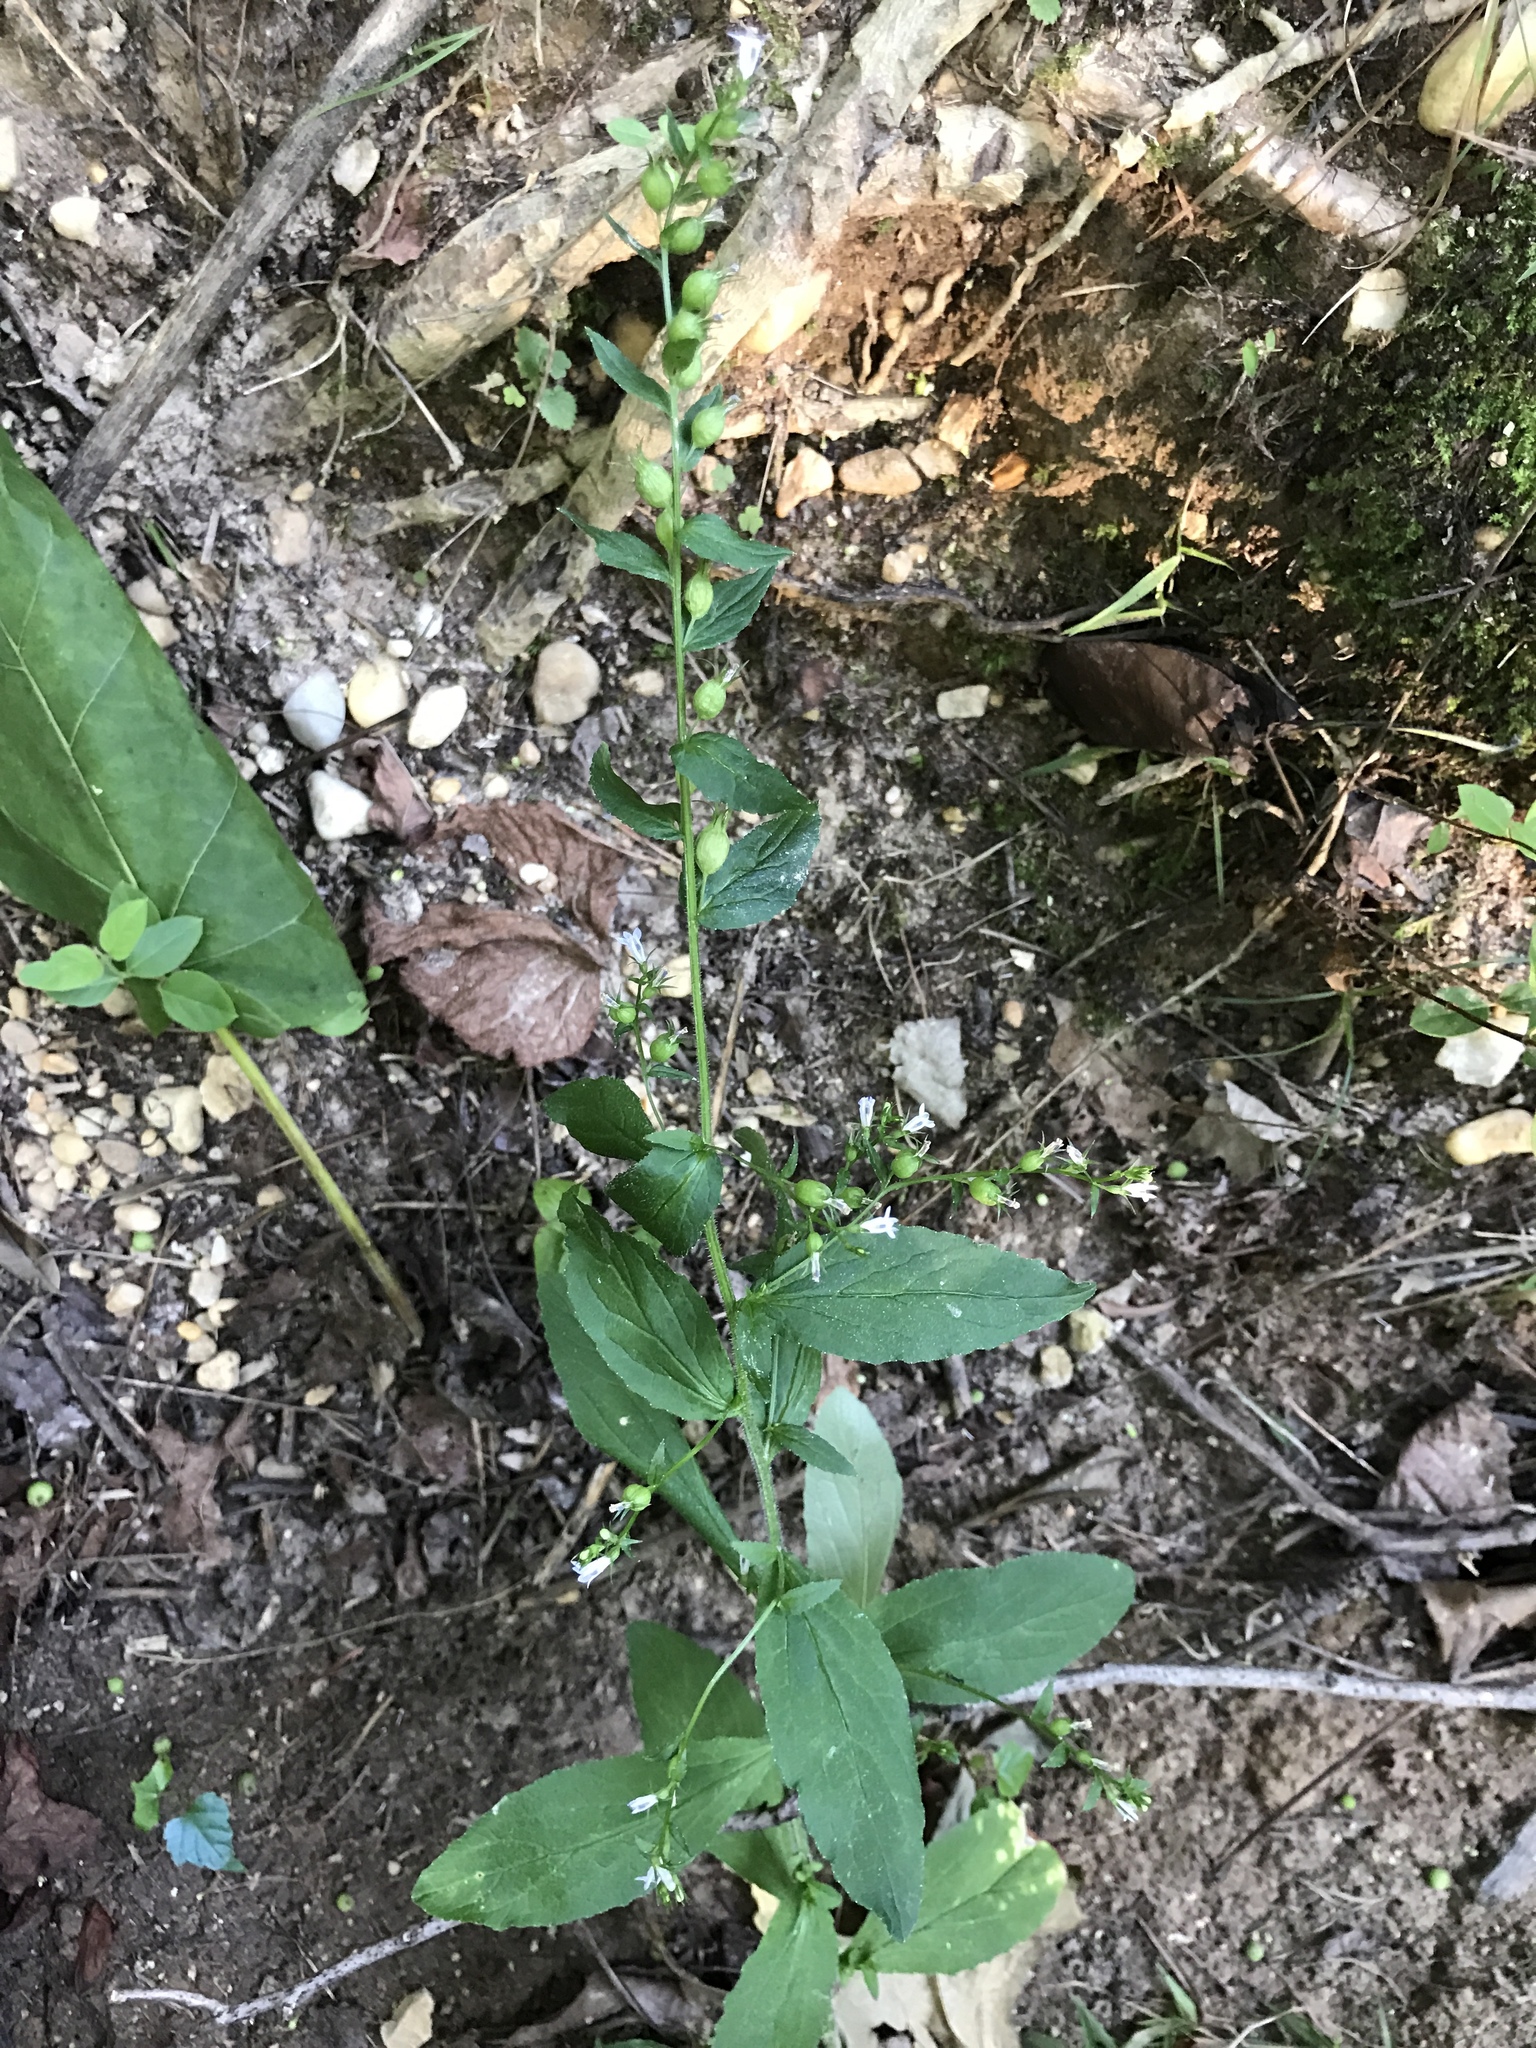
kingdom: Plantae
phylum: Tracheophyta
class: Magnoliopsida
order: Asterales
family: Campanulaceae
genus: Lobelia
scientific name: Lobelia inflata
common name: Indian tobacco
